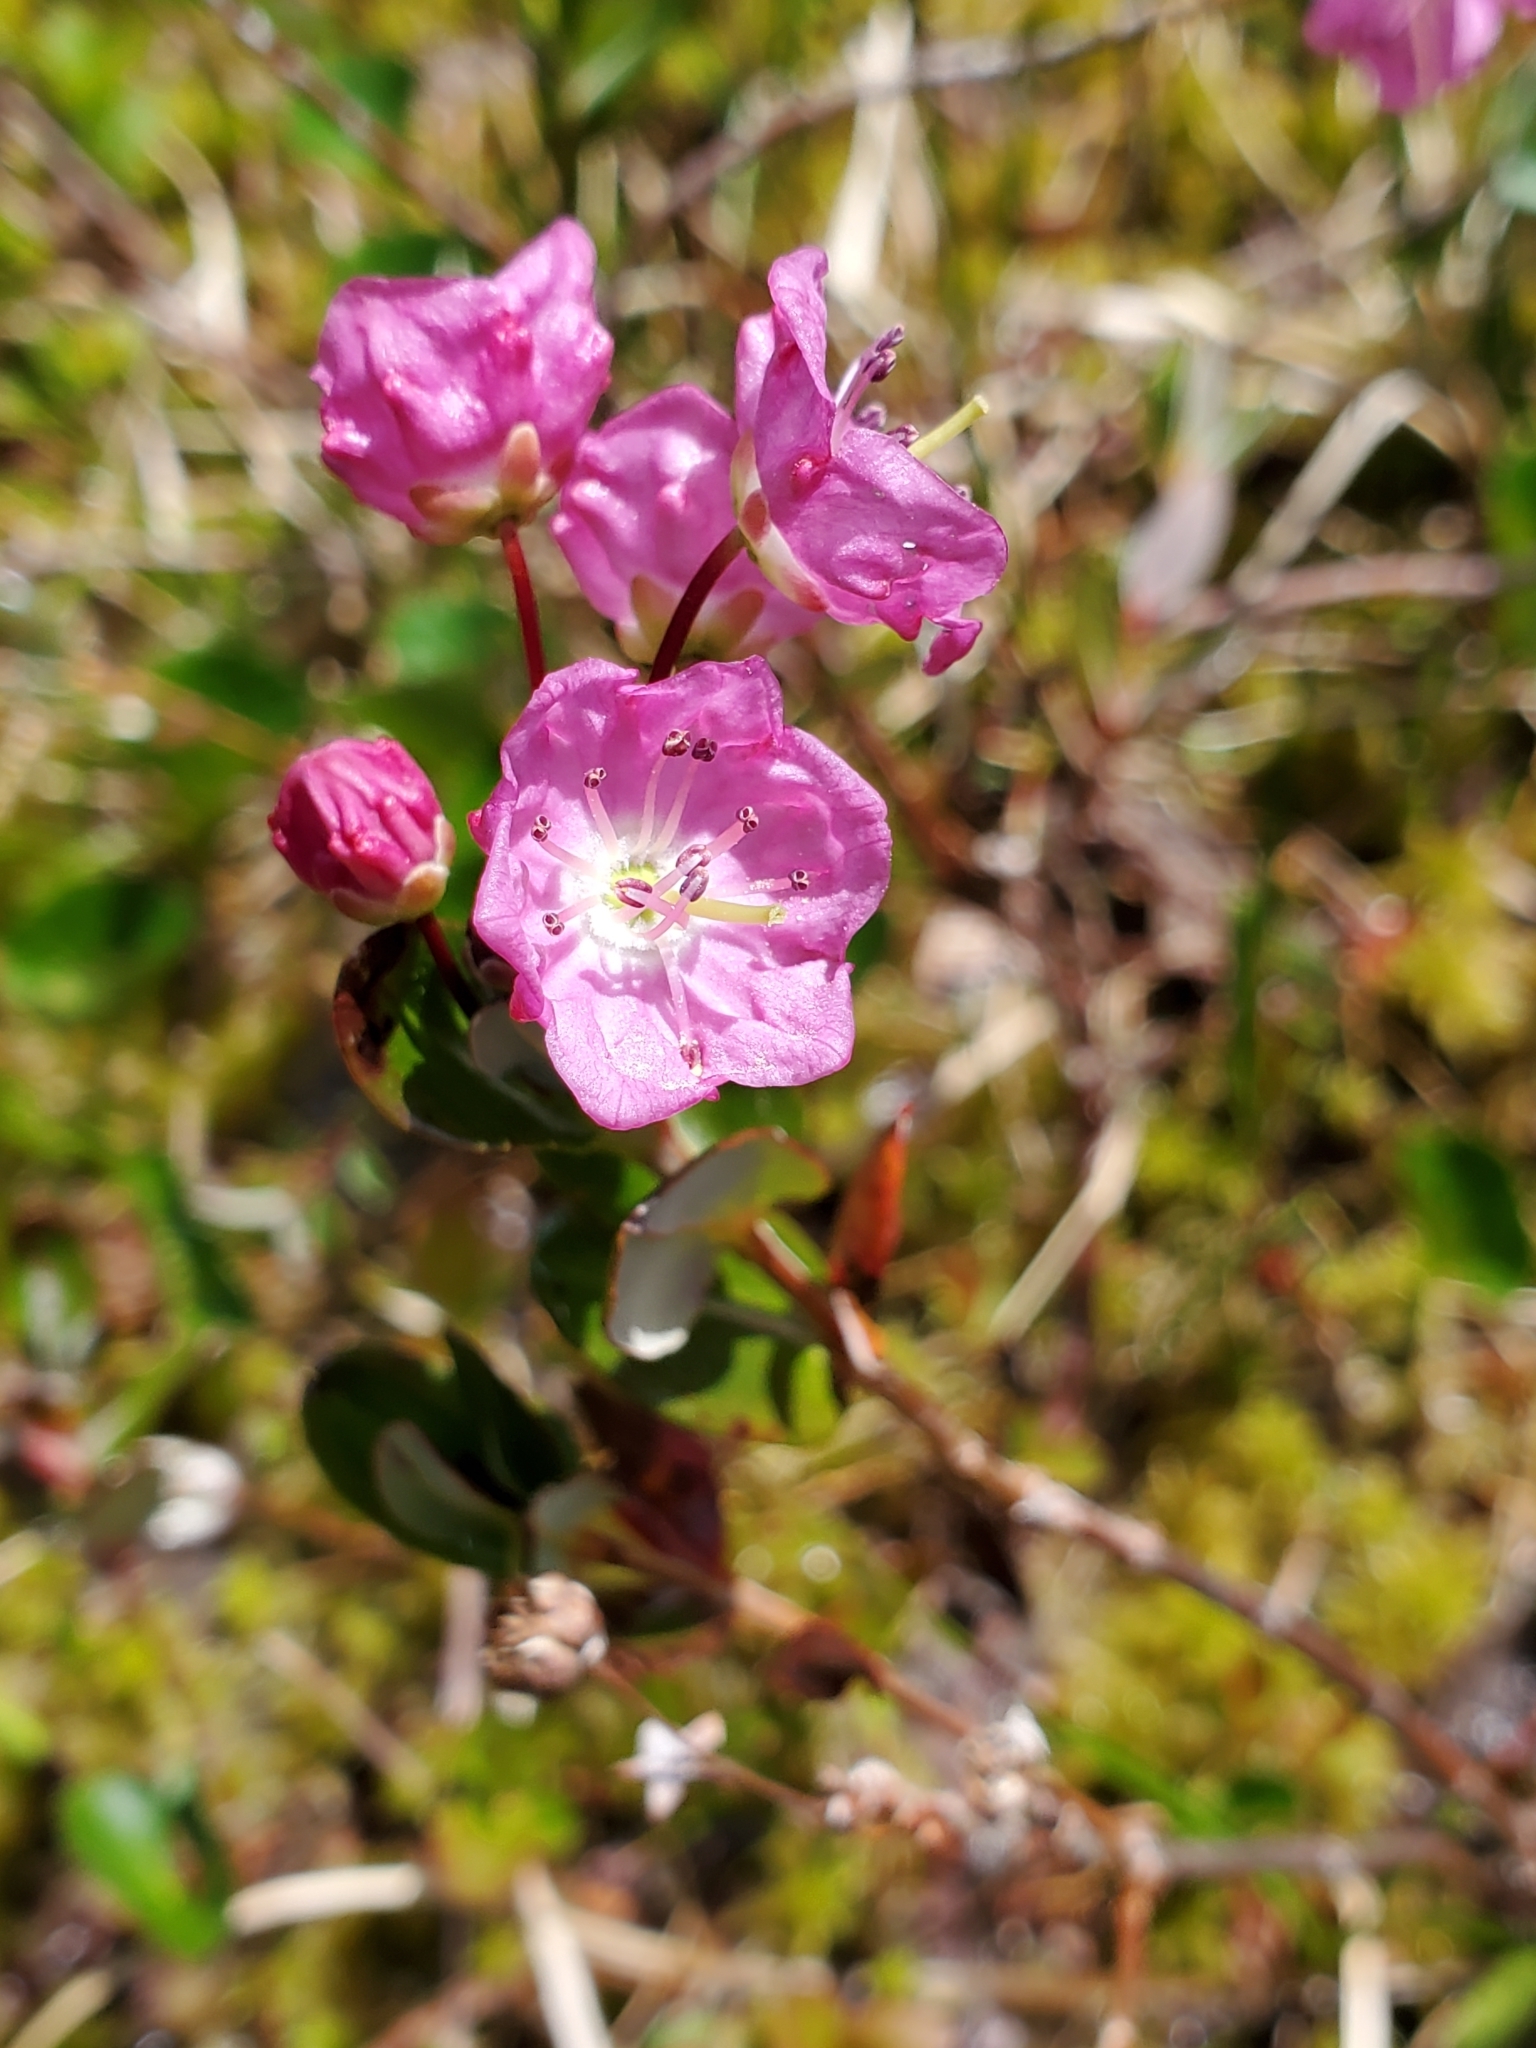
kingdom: Plantae
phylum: Tracheophyta
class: Magnoliopsida
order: Ericales
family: Ericaceae
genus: Kalmia
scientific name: Kalmia microphylla
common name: Alpine bog laurel
